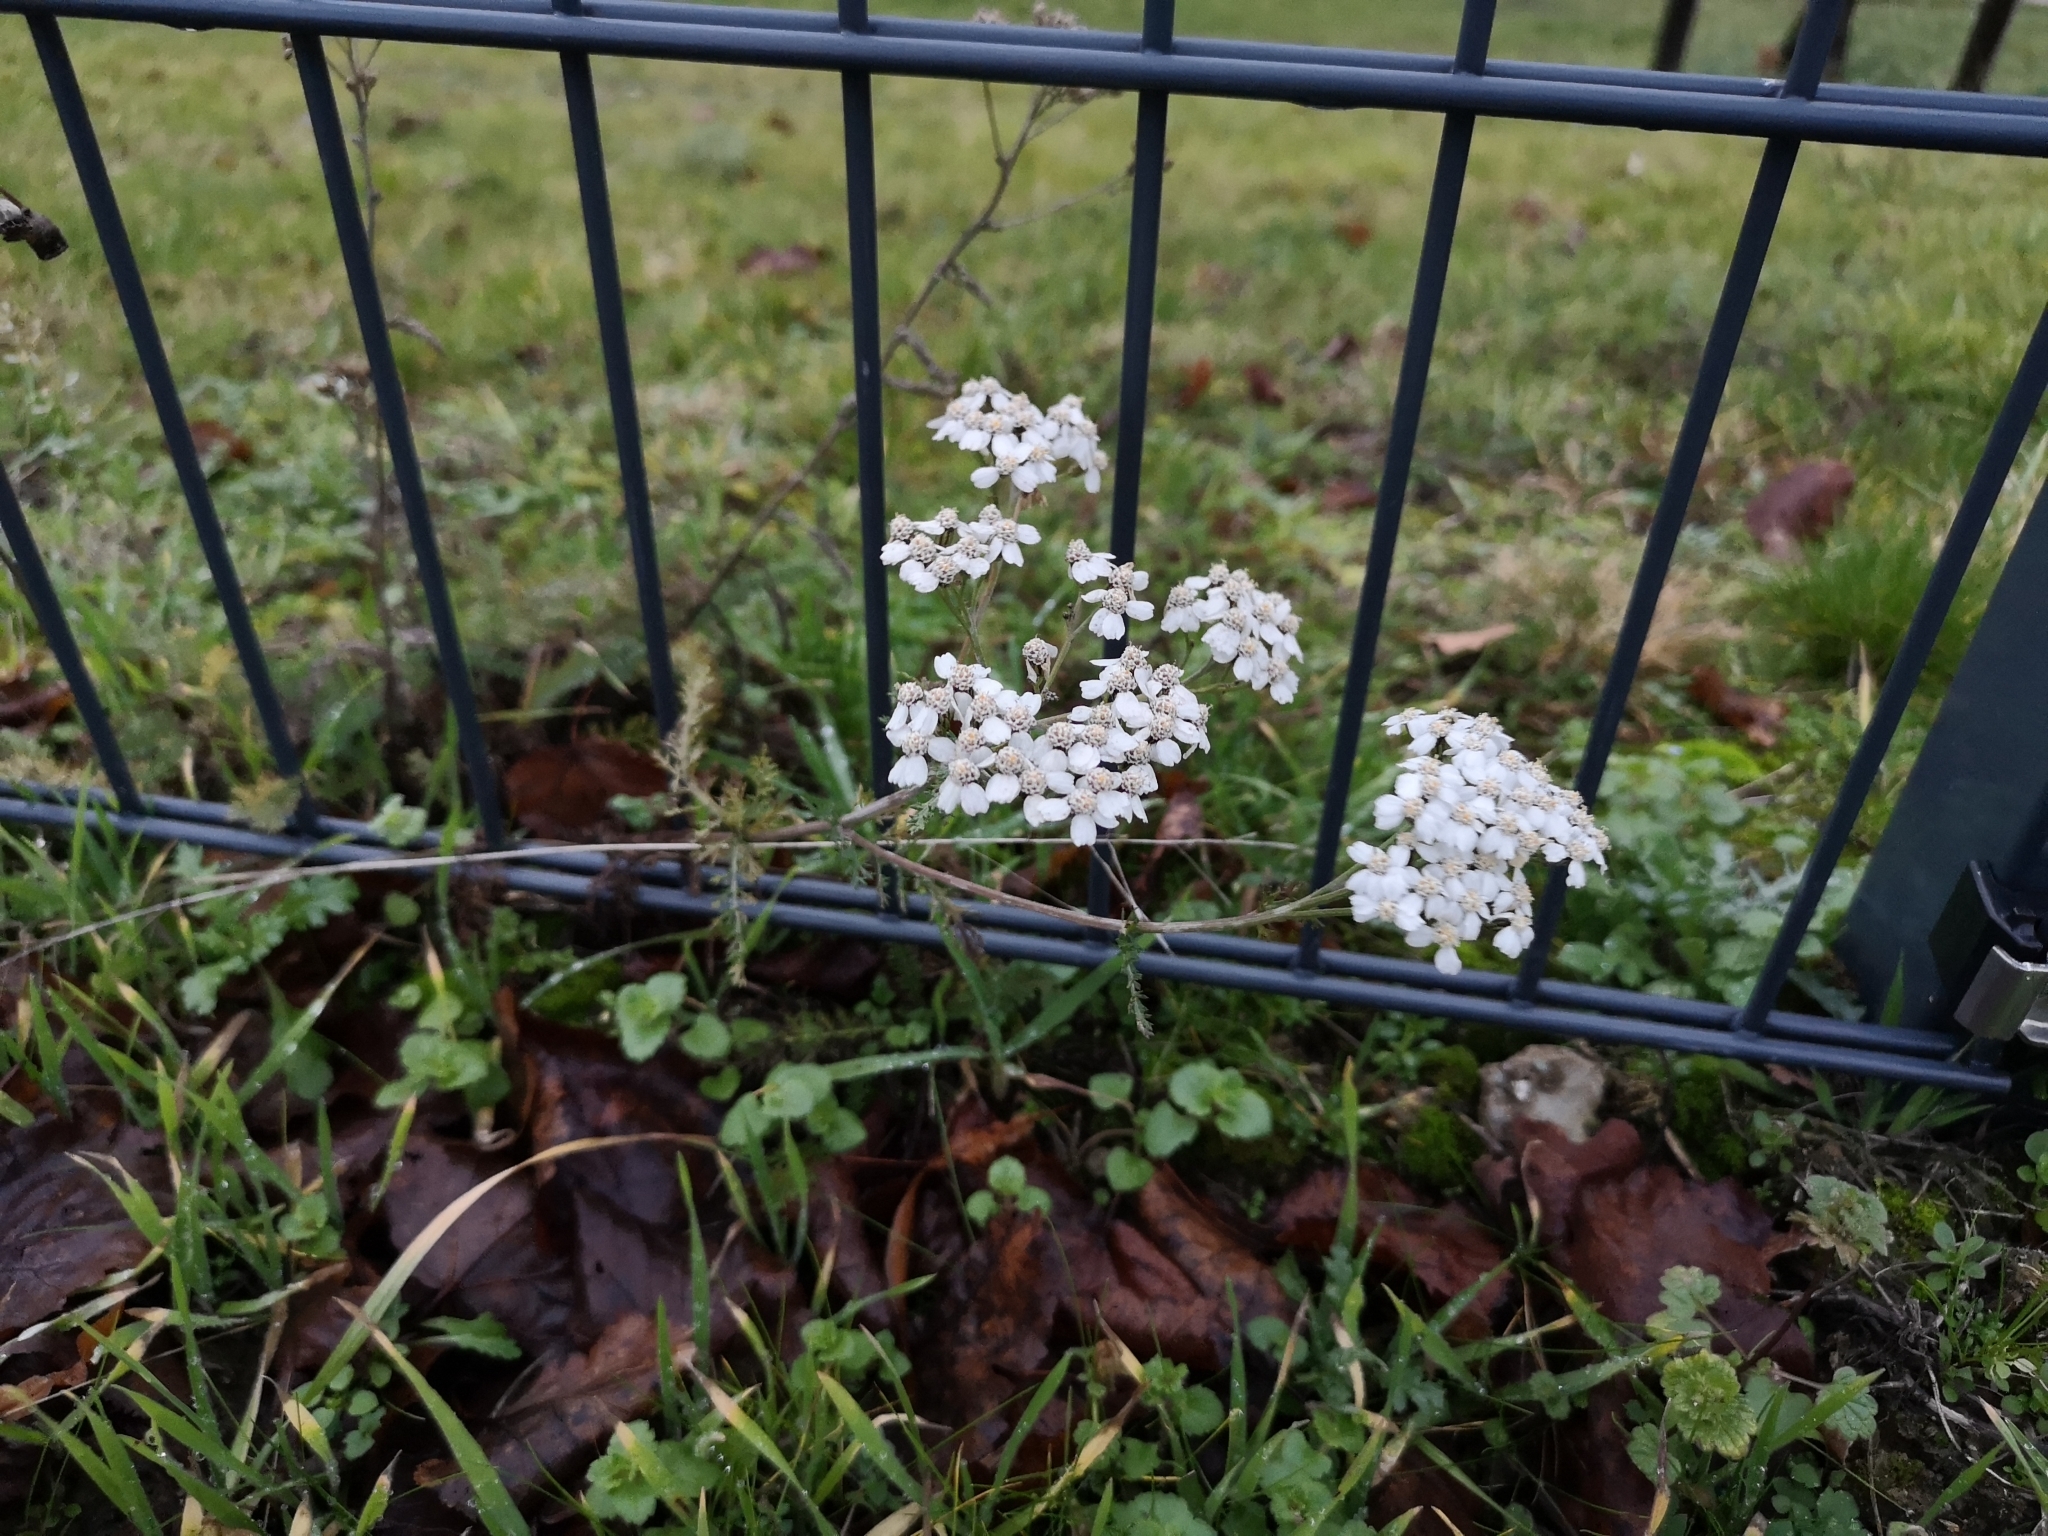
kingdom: Plantae
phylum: Tracheophyta
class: Magnoliopsida
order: Asterales
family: Asteraceae
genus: Achillea
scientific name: Achillea millefolium
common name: Yarrow
